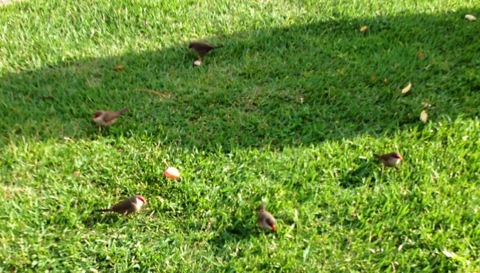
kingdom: Animalia
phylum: Chordata
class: Aves
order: Passeriformes
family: Estrildidae
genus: Estrilda
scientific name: Estrilda astrild
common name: Common waxbill
